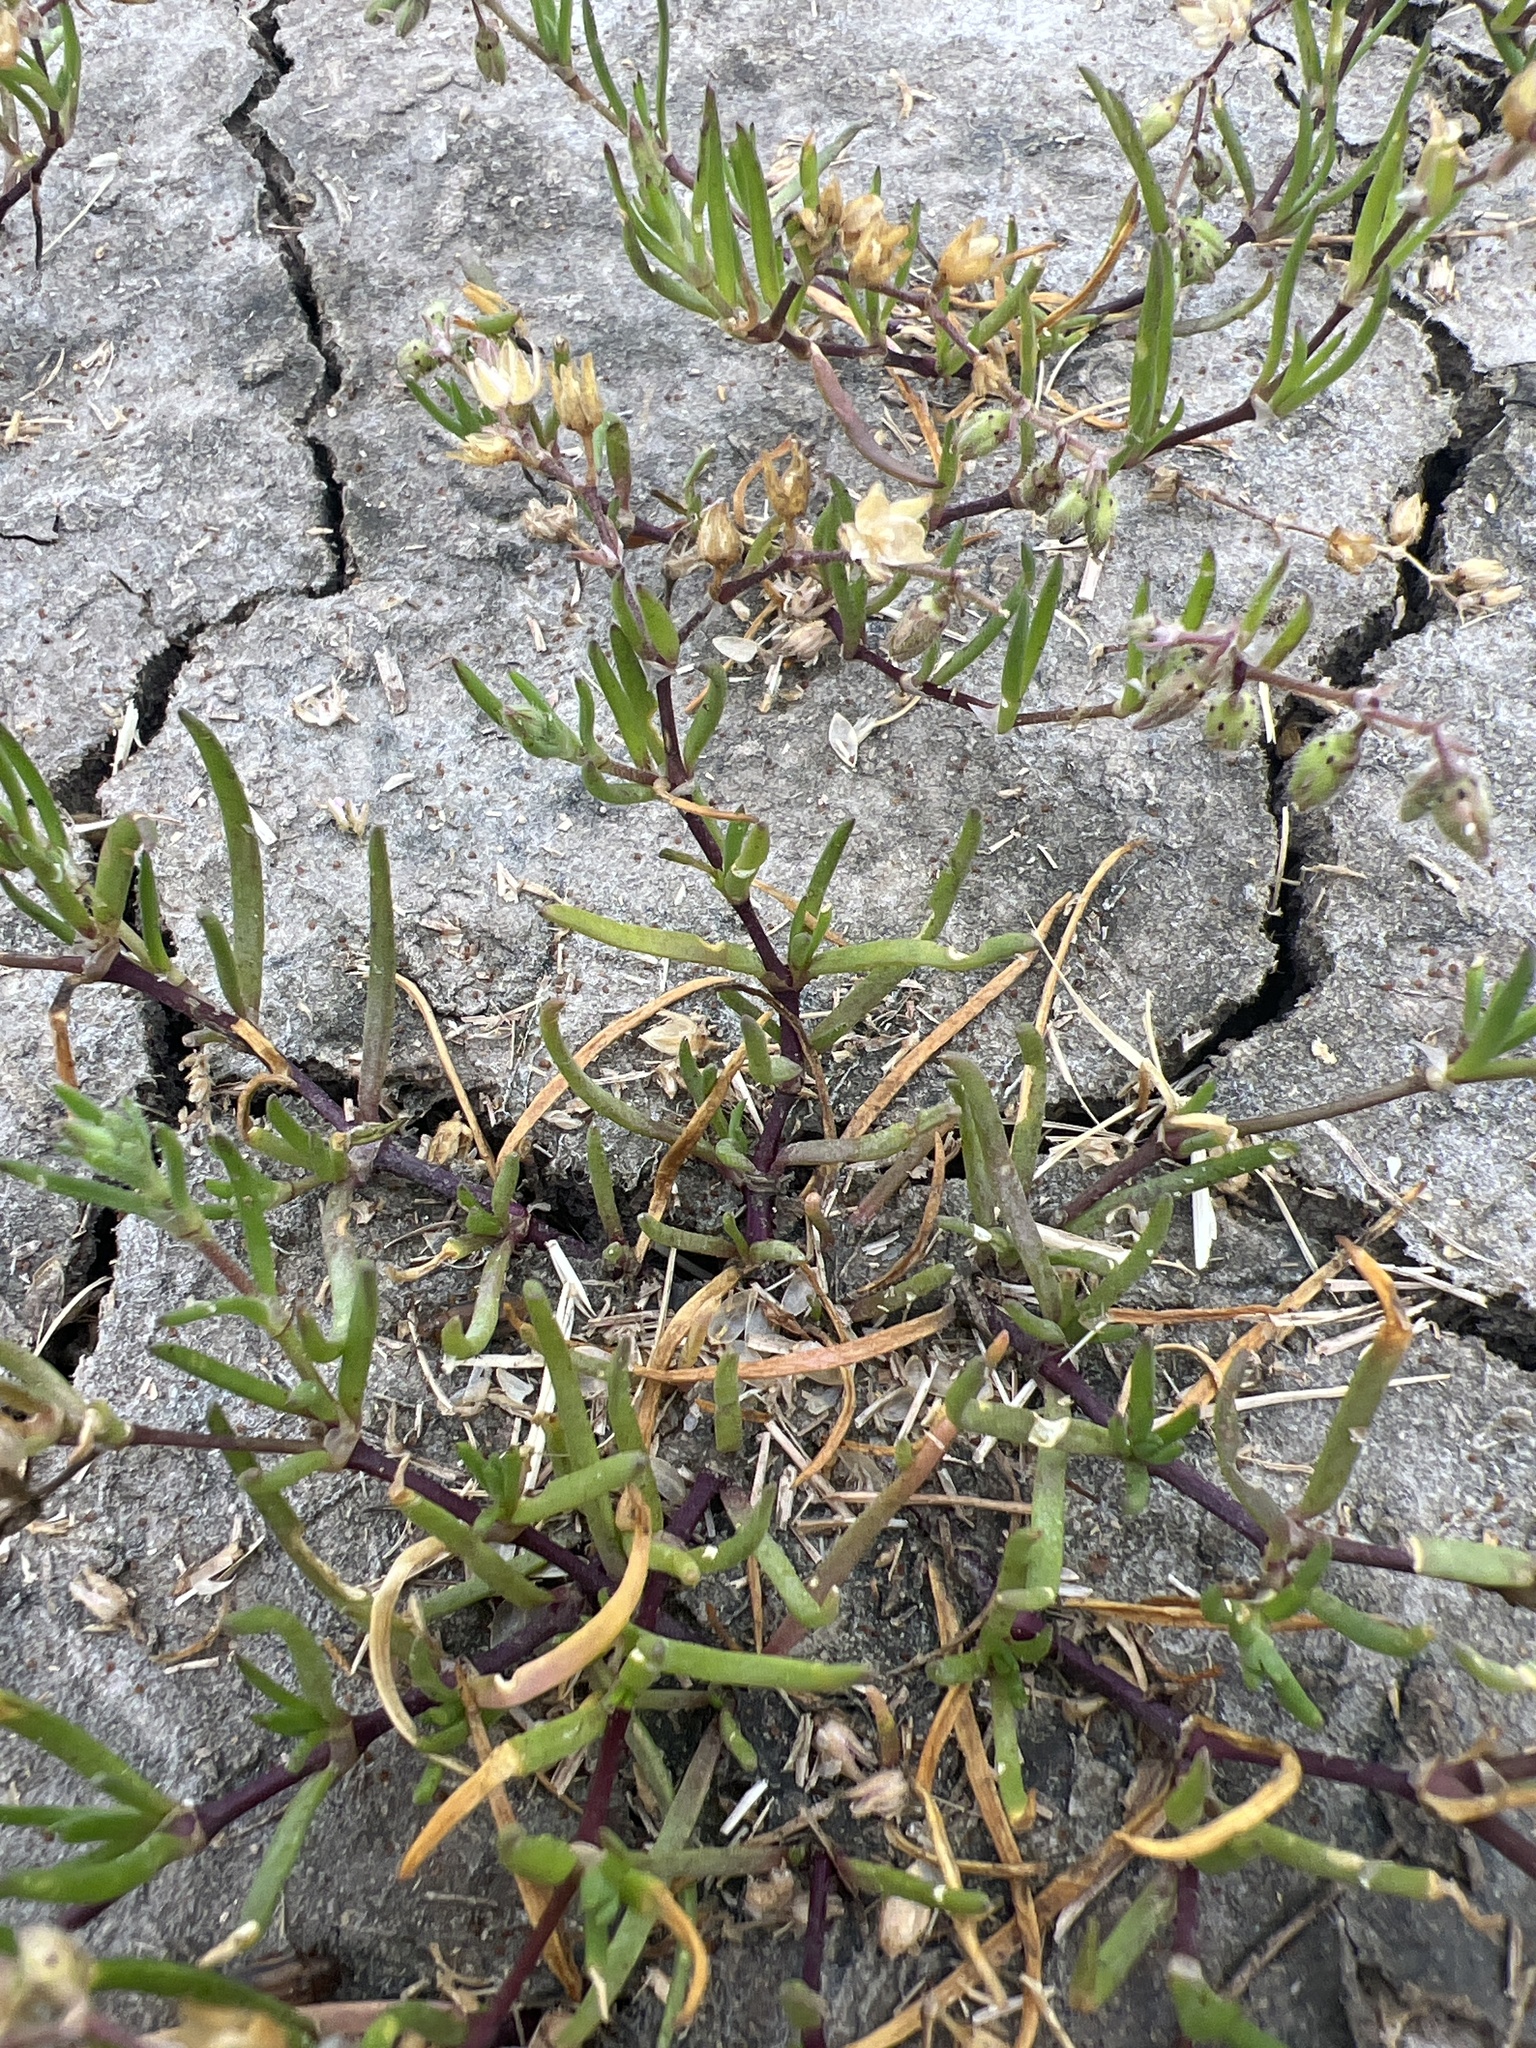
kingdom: Plantae
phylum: Tracheophyta
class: Magnoliopsida
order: Caryophyllales
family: Caryophyllaceae
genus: Spergularia
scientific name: Spergularia marina
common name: Lesser sea-spurrey
